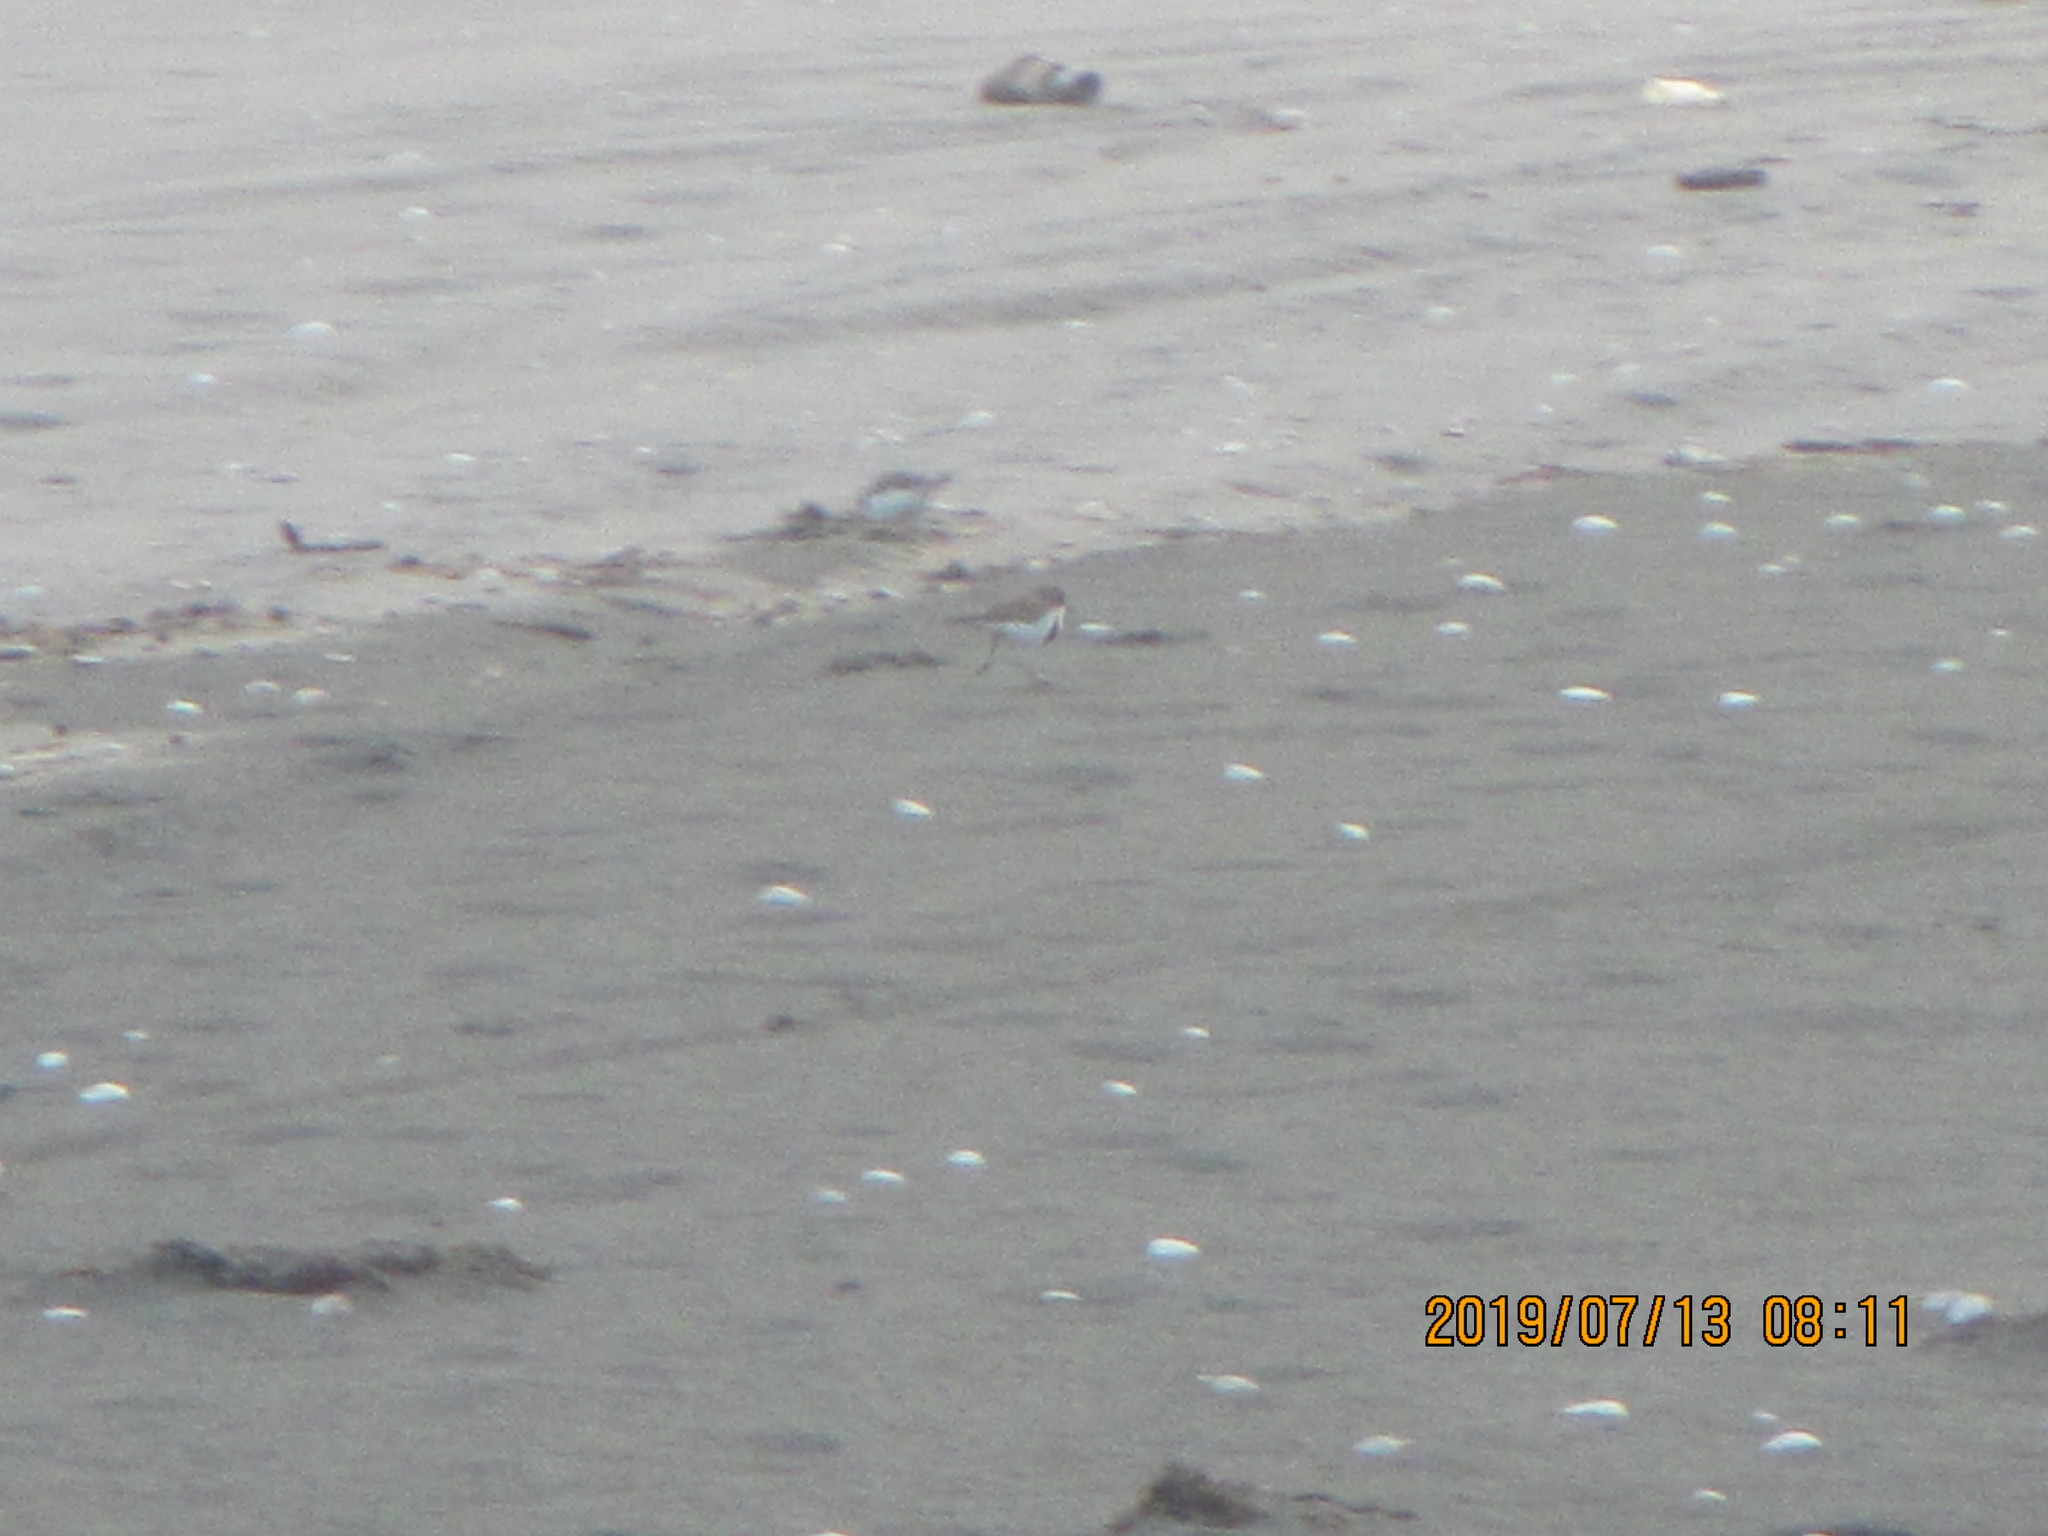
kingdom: Animalia
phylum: Chordata
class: Aves
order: Charadriiformes
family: Charadriidae
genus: Anarhynchus
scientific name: Anarhynchus
